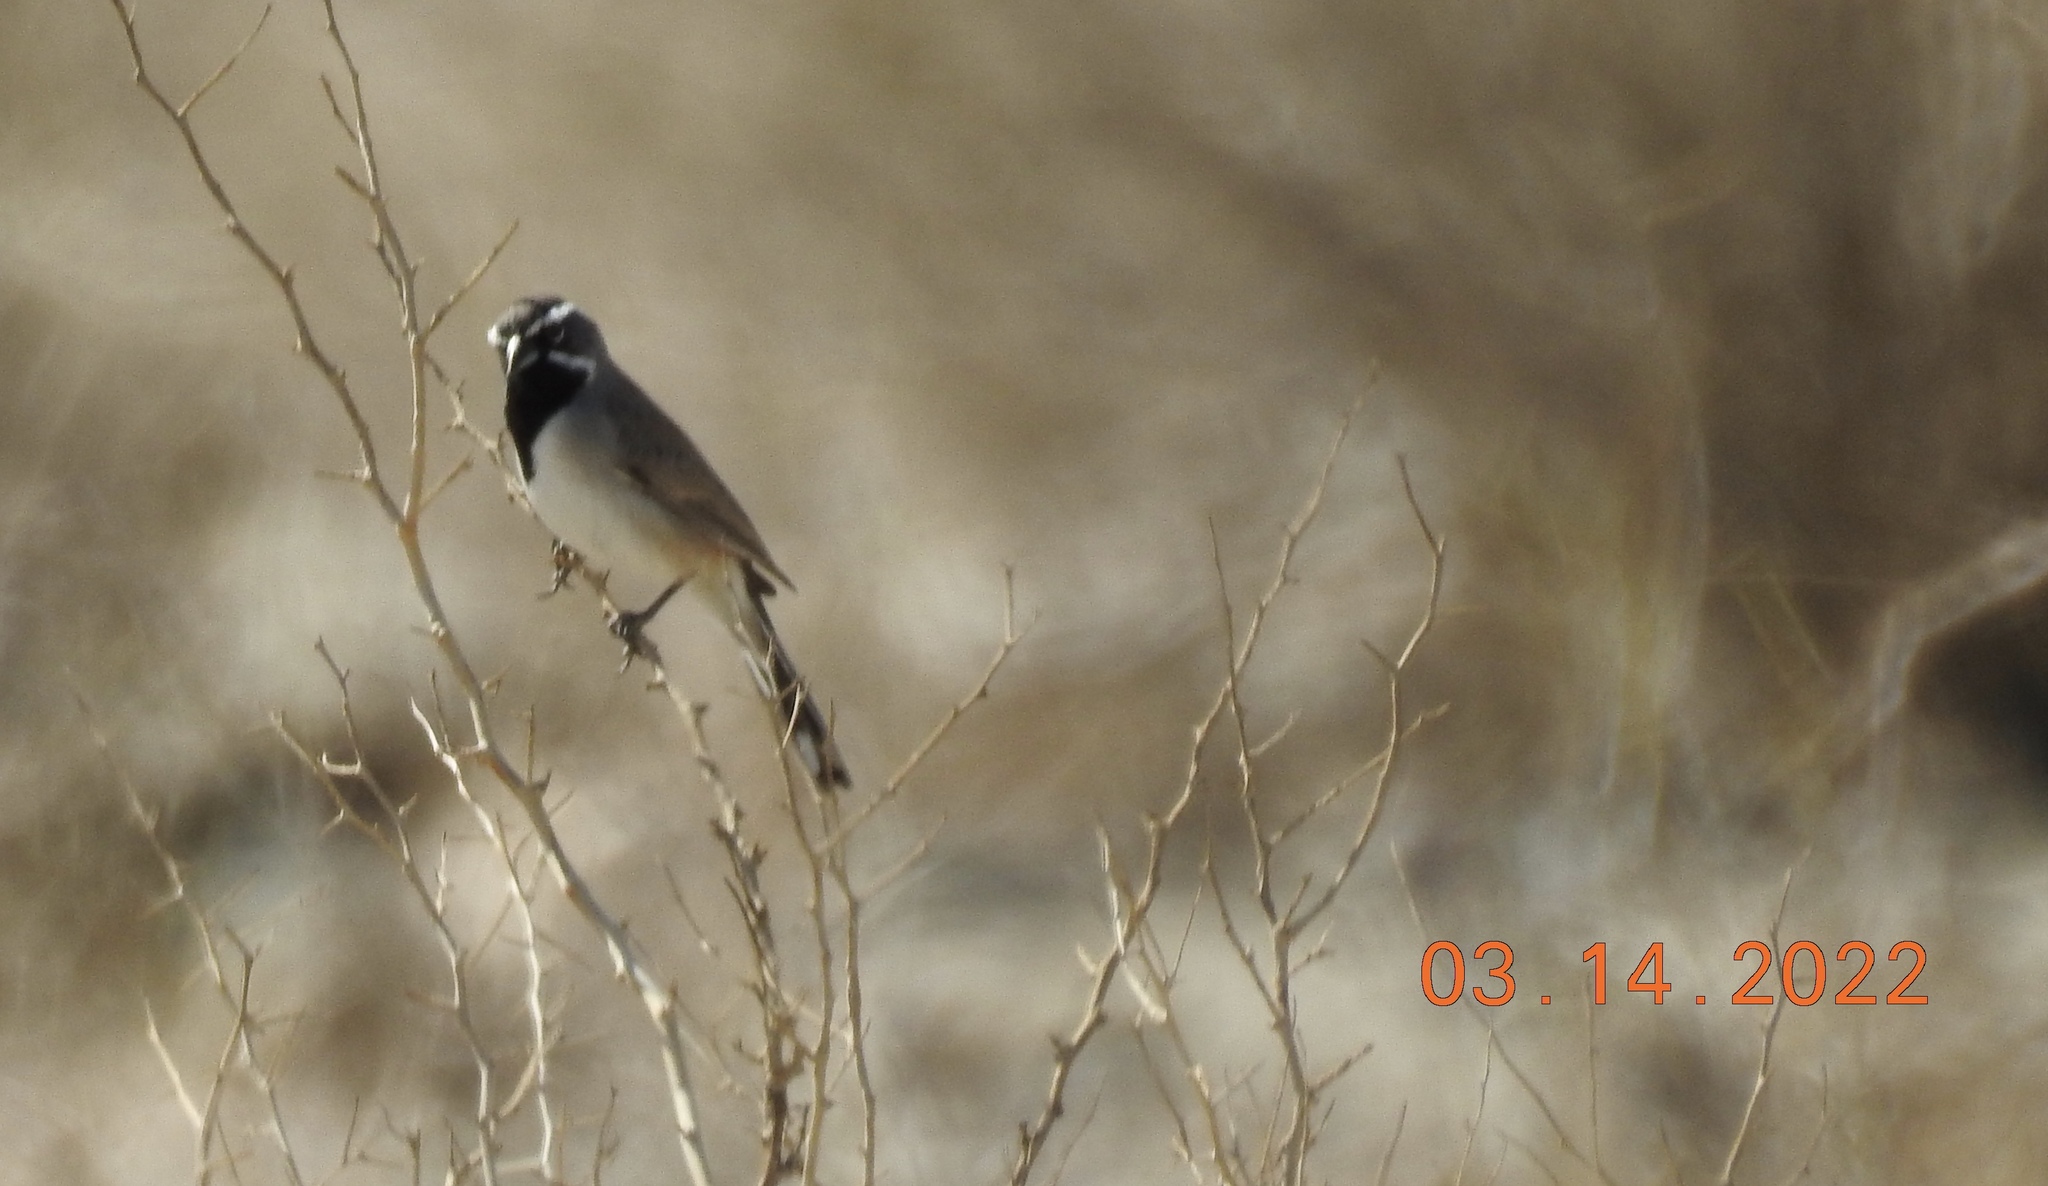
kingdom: Animalia
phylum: Chordata
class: Aves
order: Passeriformes
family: Passerellidae
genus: Amphispiza
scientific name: Amphispiza bilineata
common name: Black-throated sparrow
